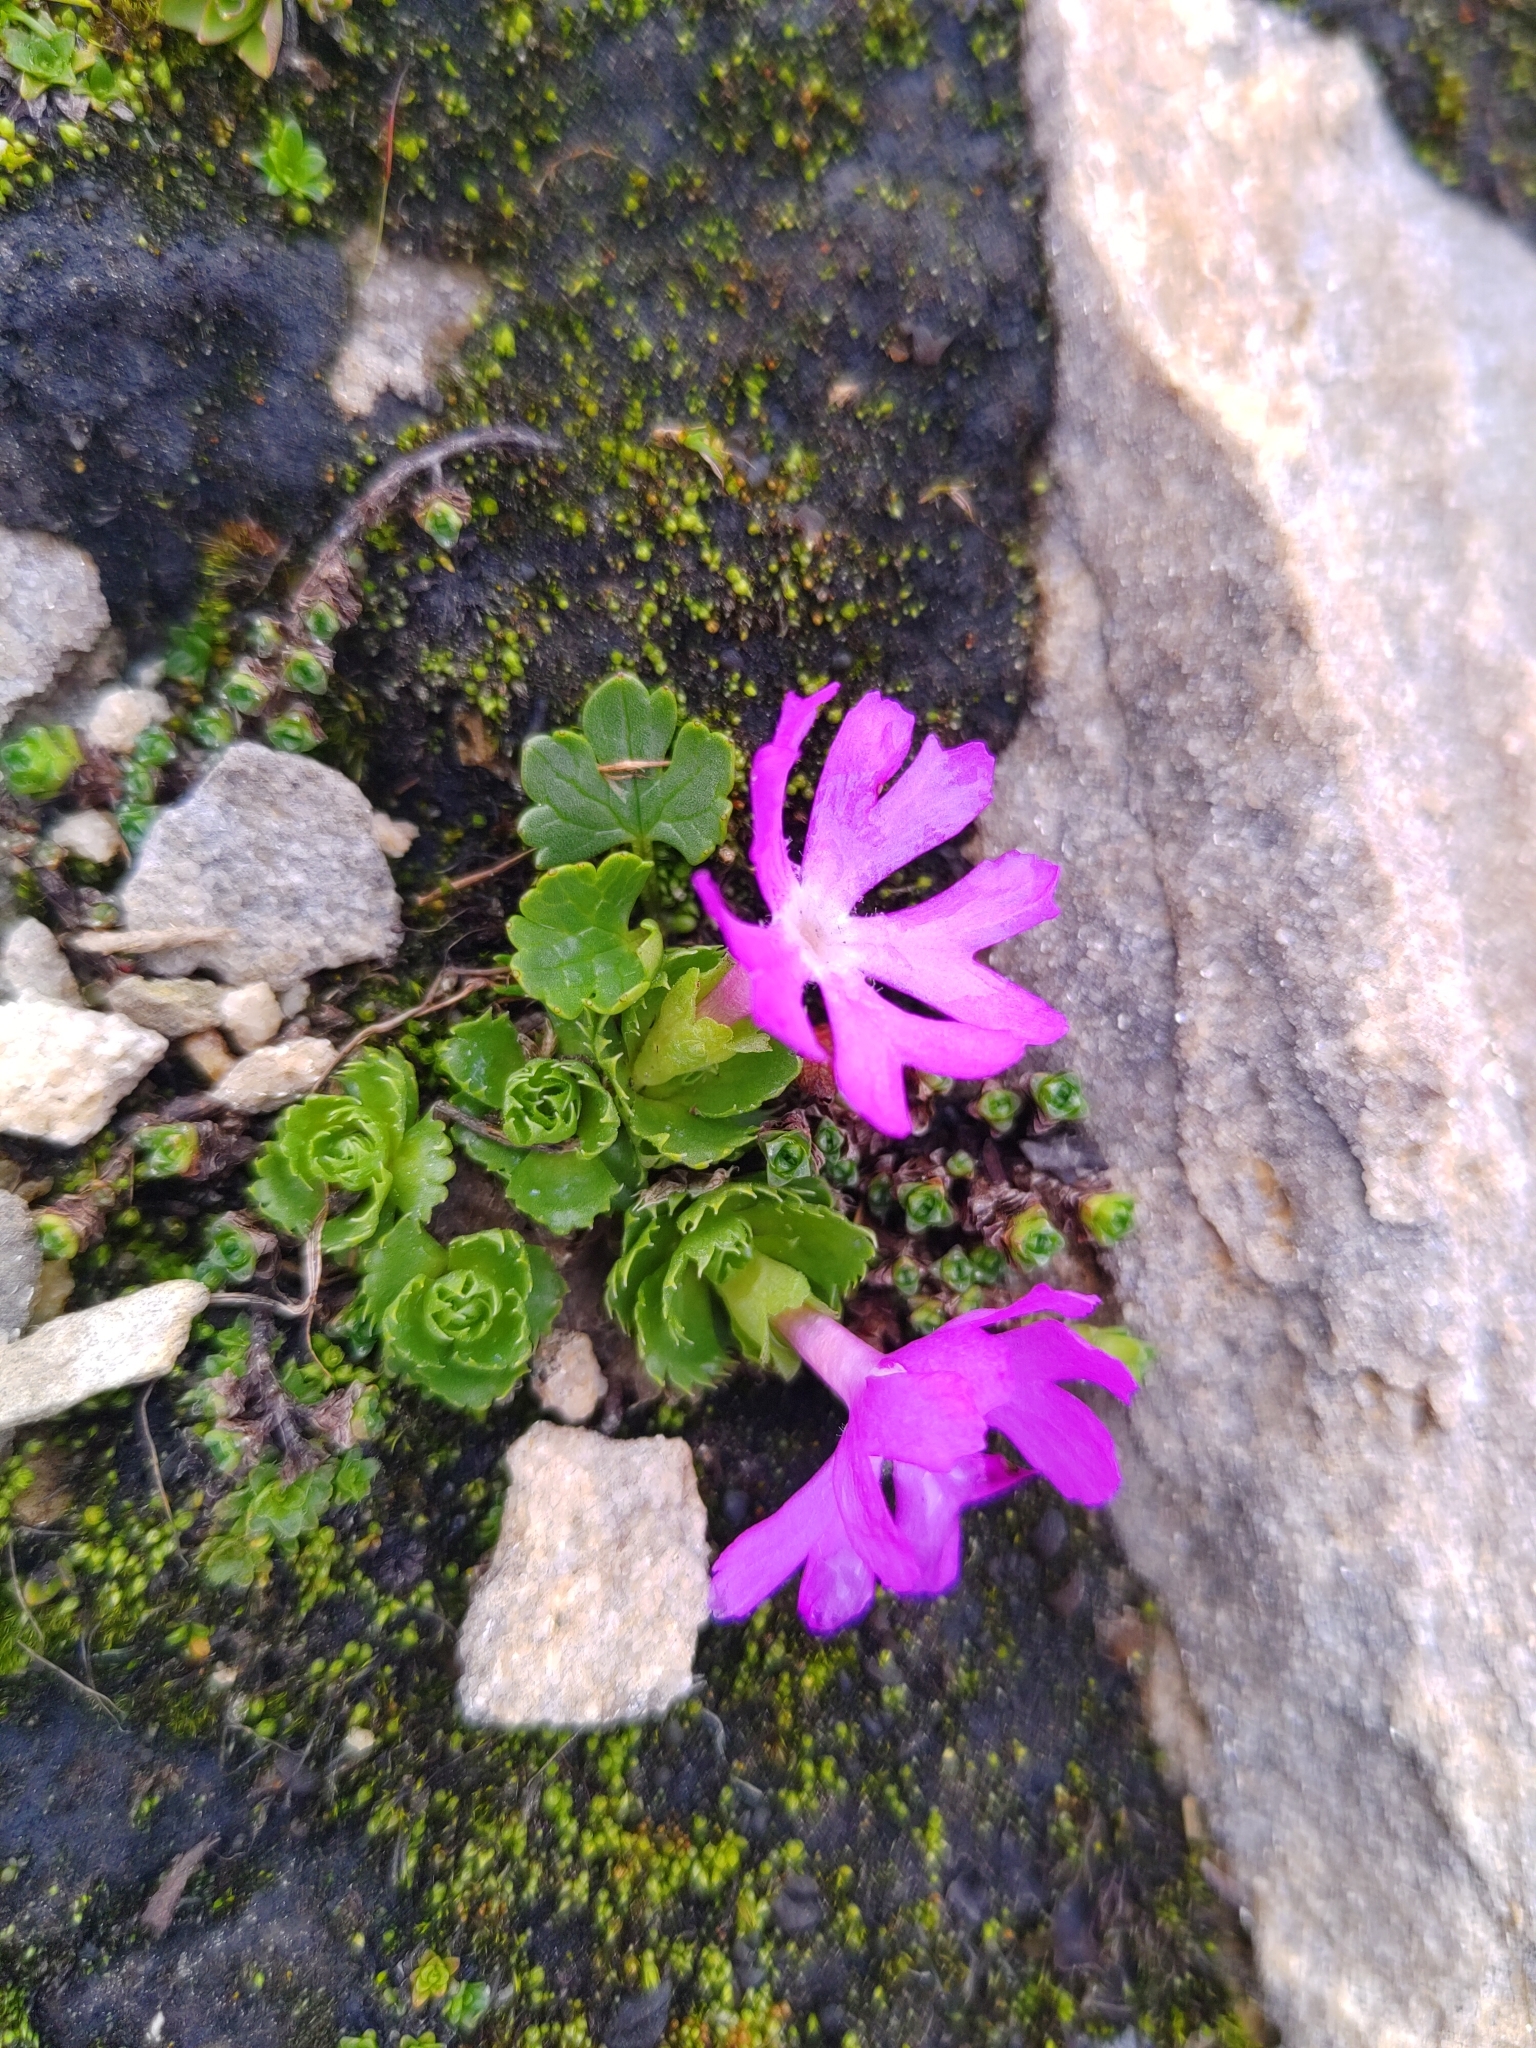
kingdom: Plantae
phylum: Tracheophyta
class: Magnoliopsida
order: Ericales
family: Primulaceae
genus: Primula
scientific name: Primula minima
